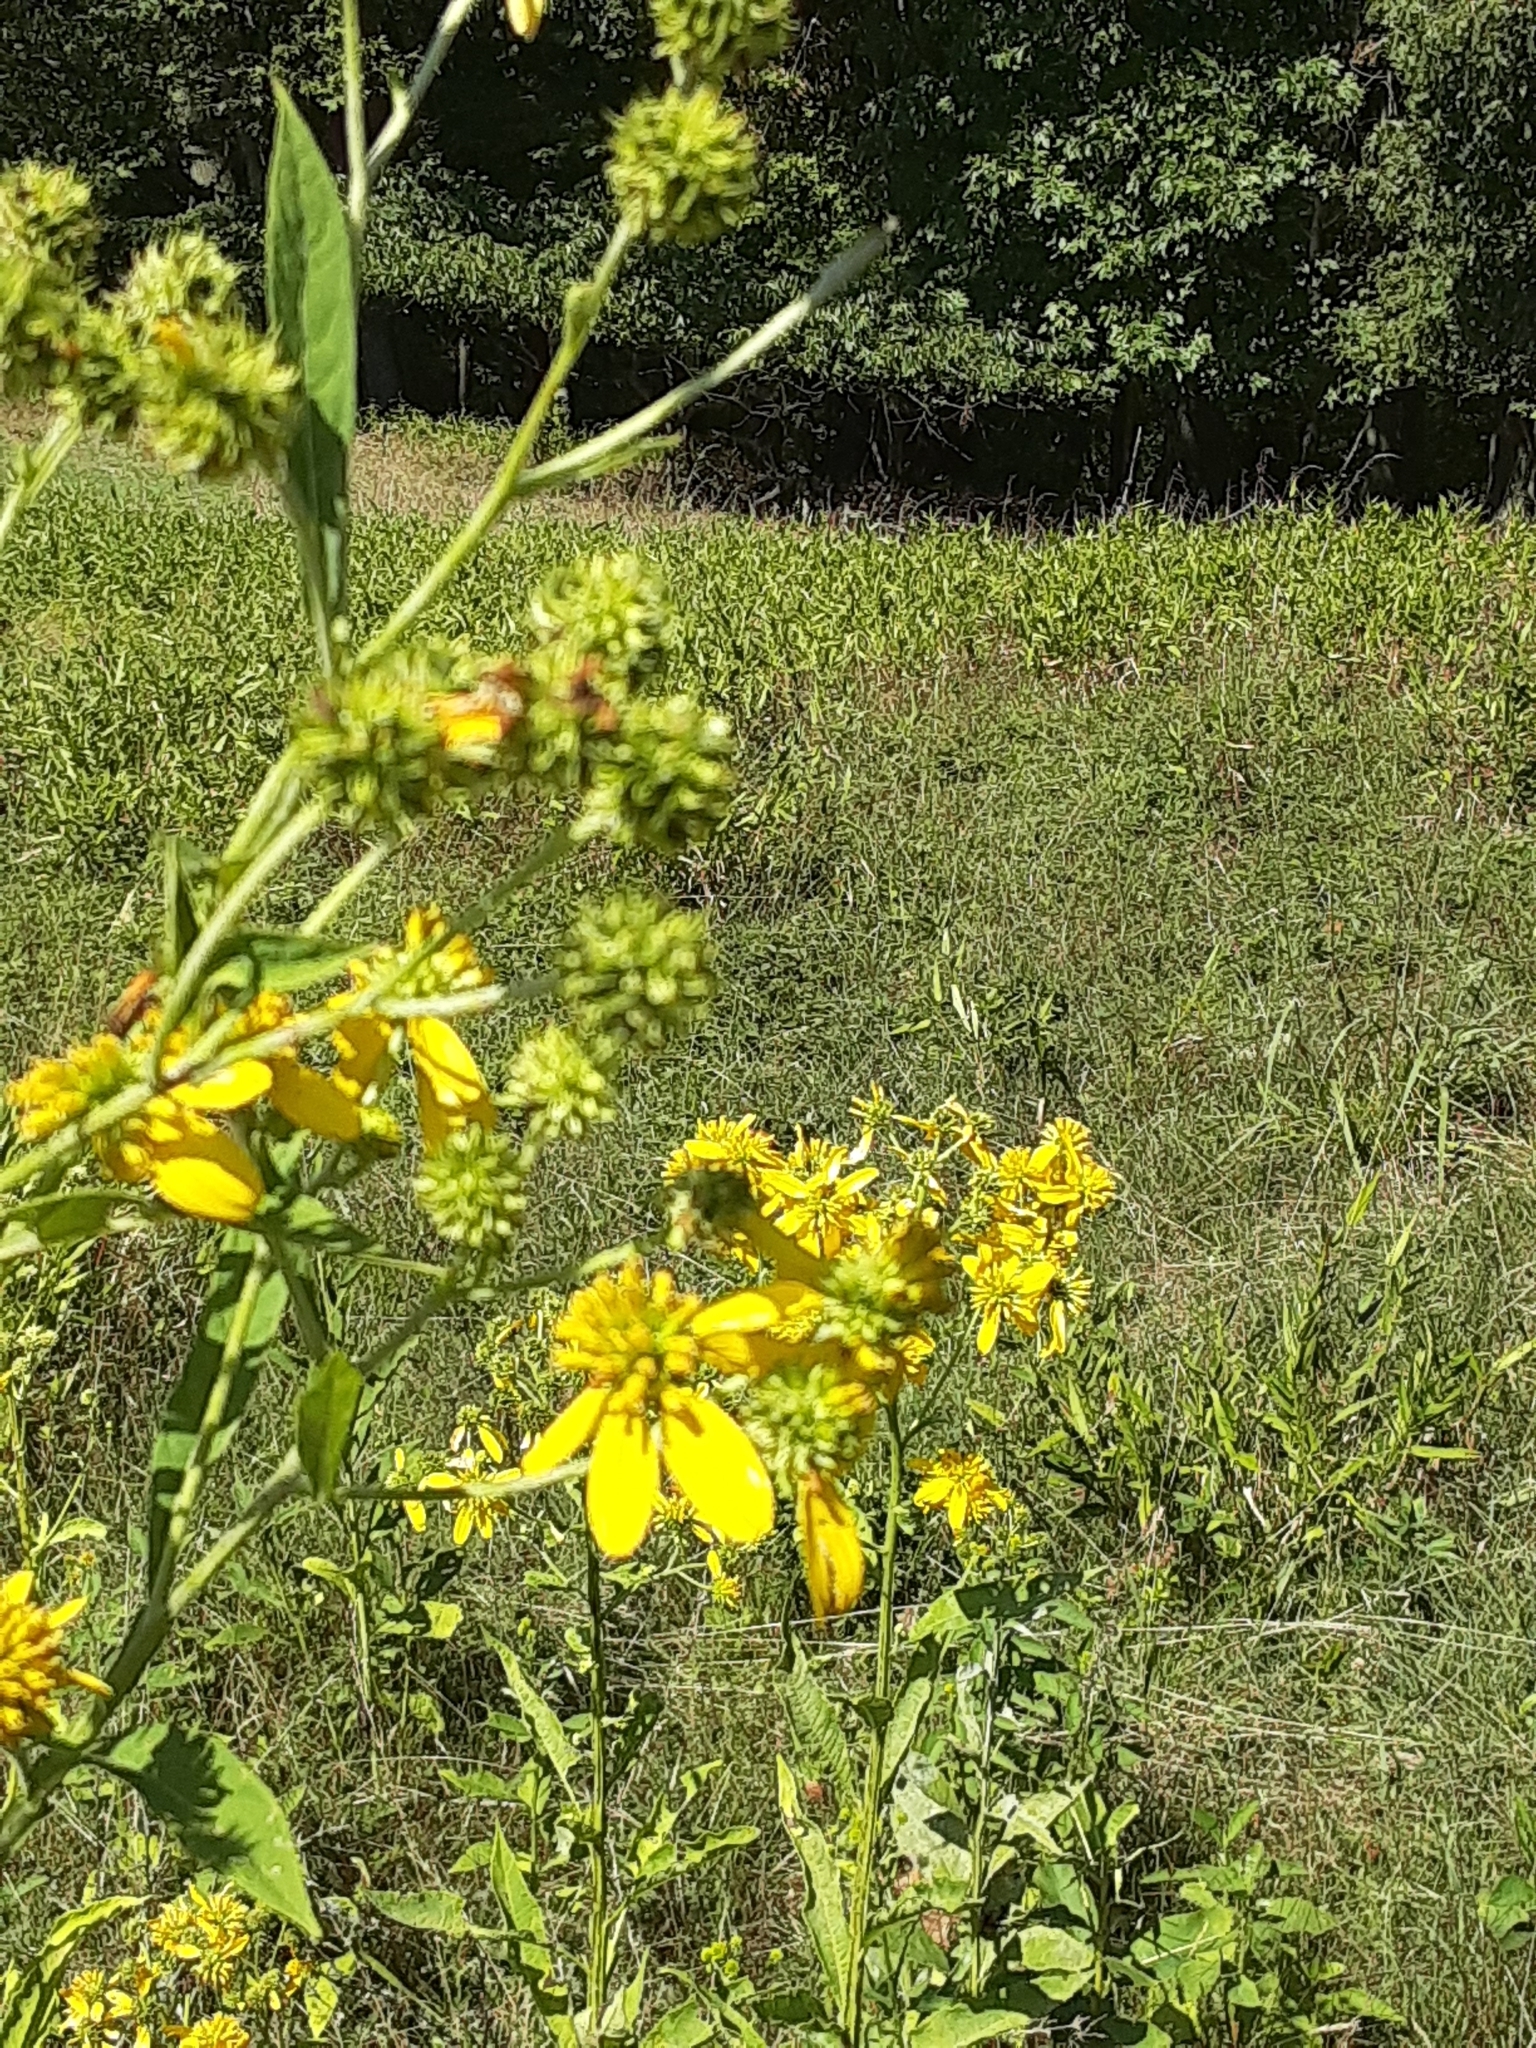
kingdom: Plantae
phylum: Tracheophyta
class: Magnoliopsida
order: Asterales
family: Asteraceae
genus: Verbesina
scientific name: Verbesina alternifolia
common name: Wingstem
